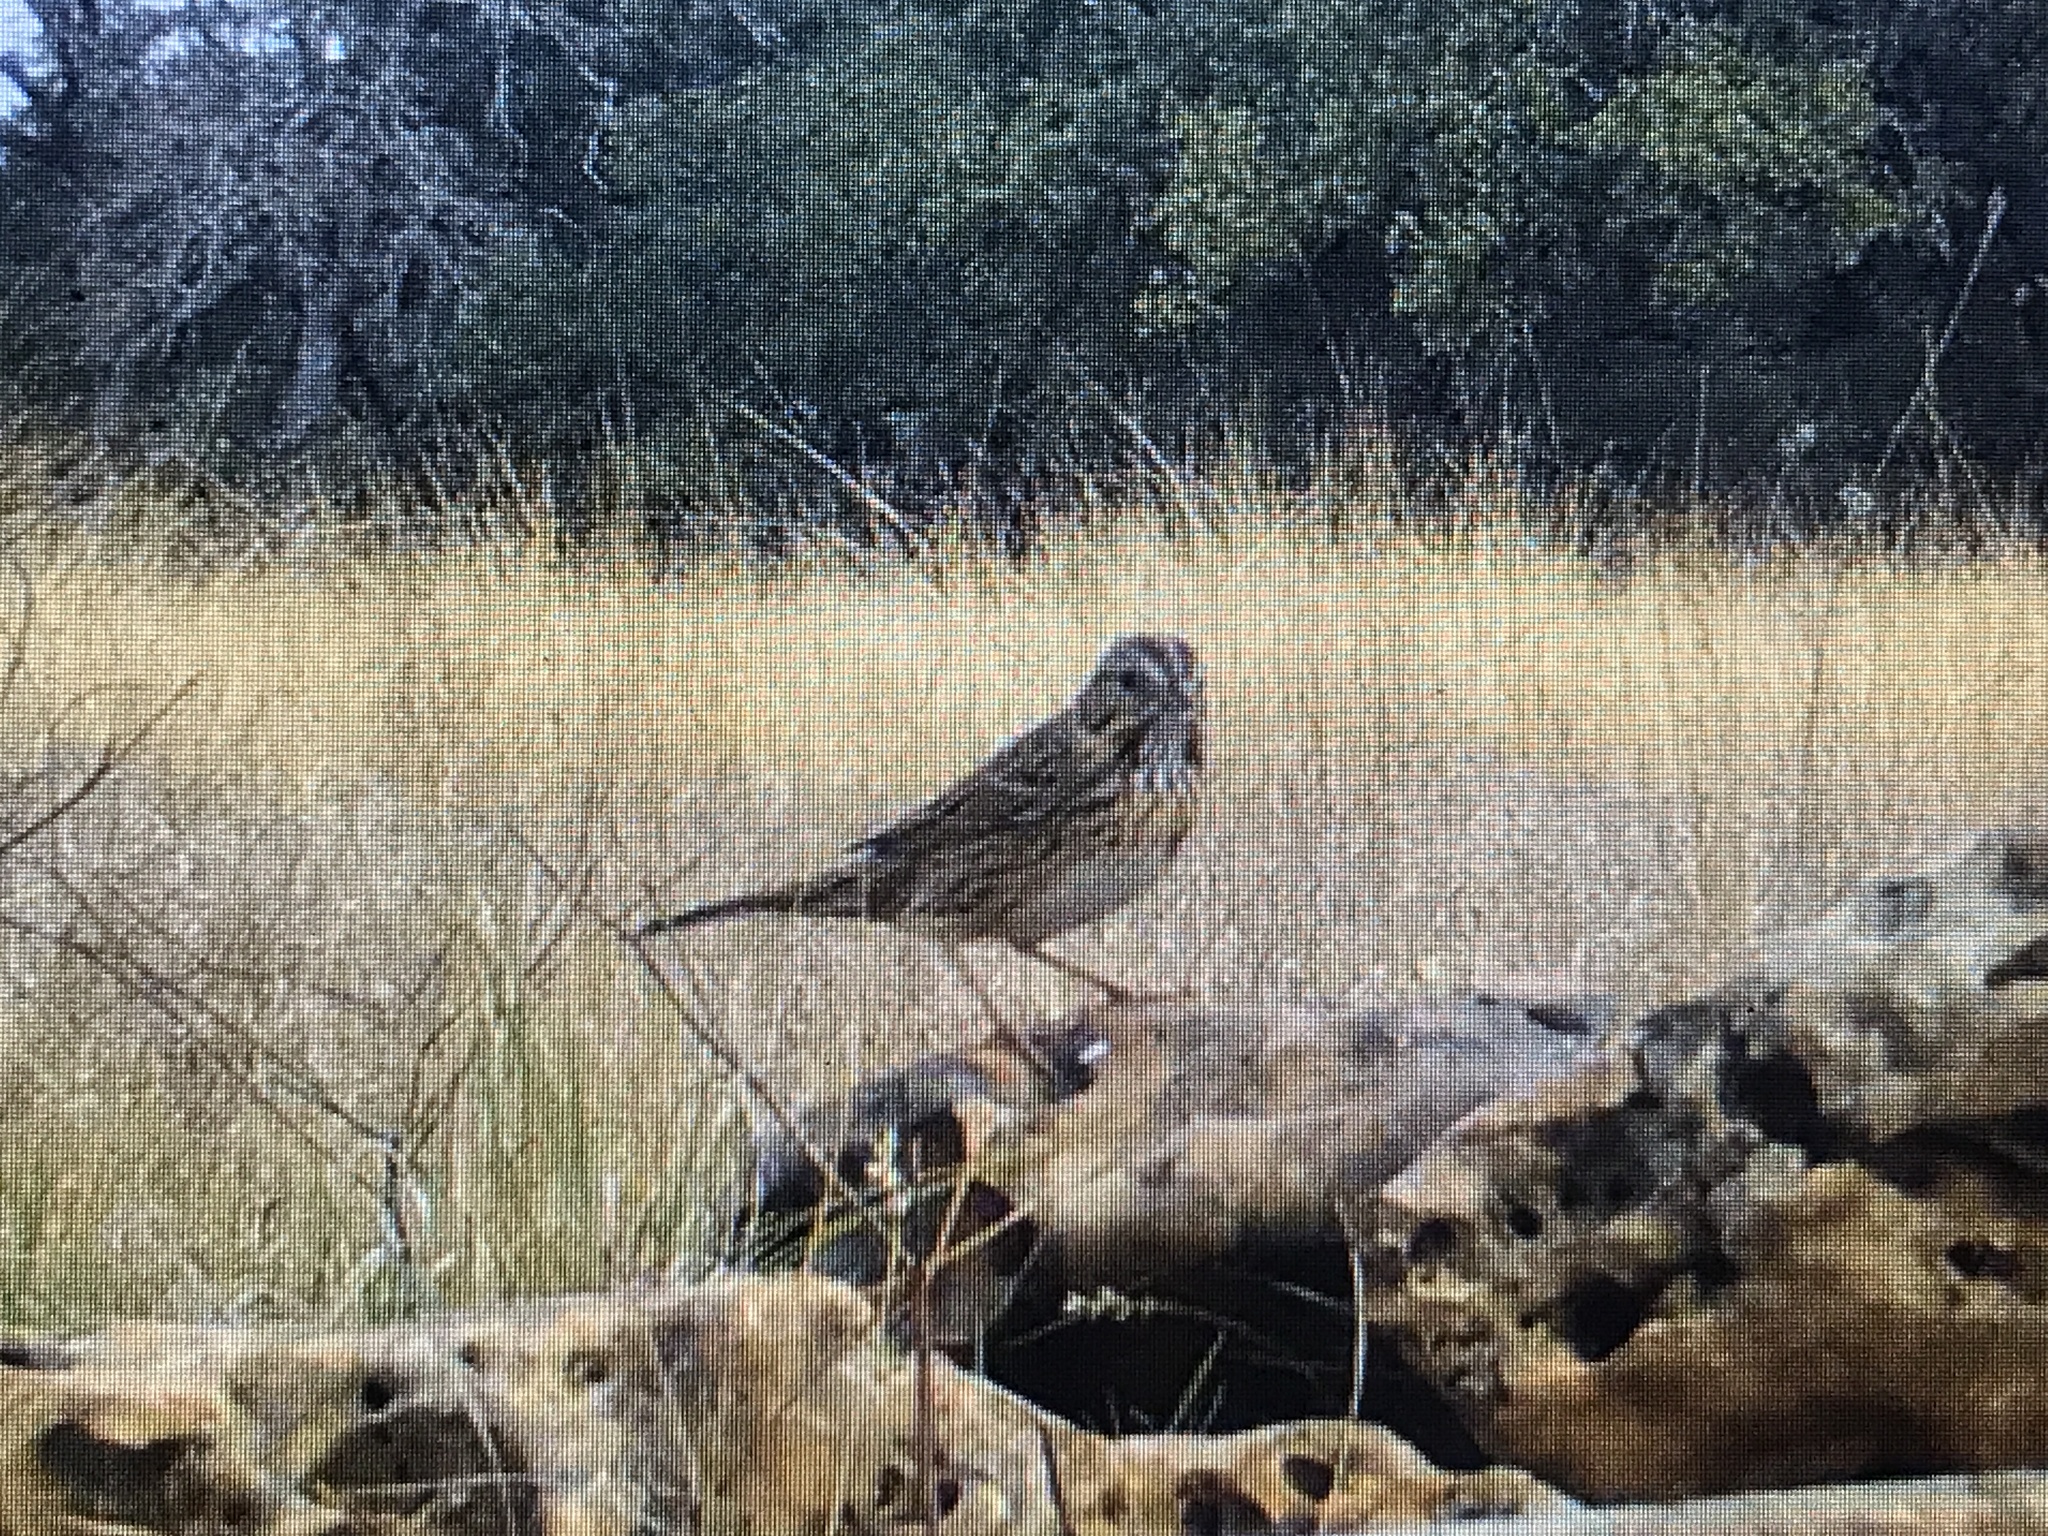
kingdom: Animalia
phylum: Chordata
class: Aves
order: Passeriformes
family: Passerellidae
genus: Melospiza
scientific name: Melospiza lincolnii
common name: Lincoln's sparrow
